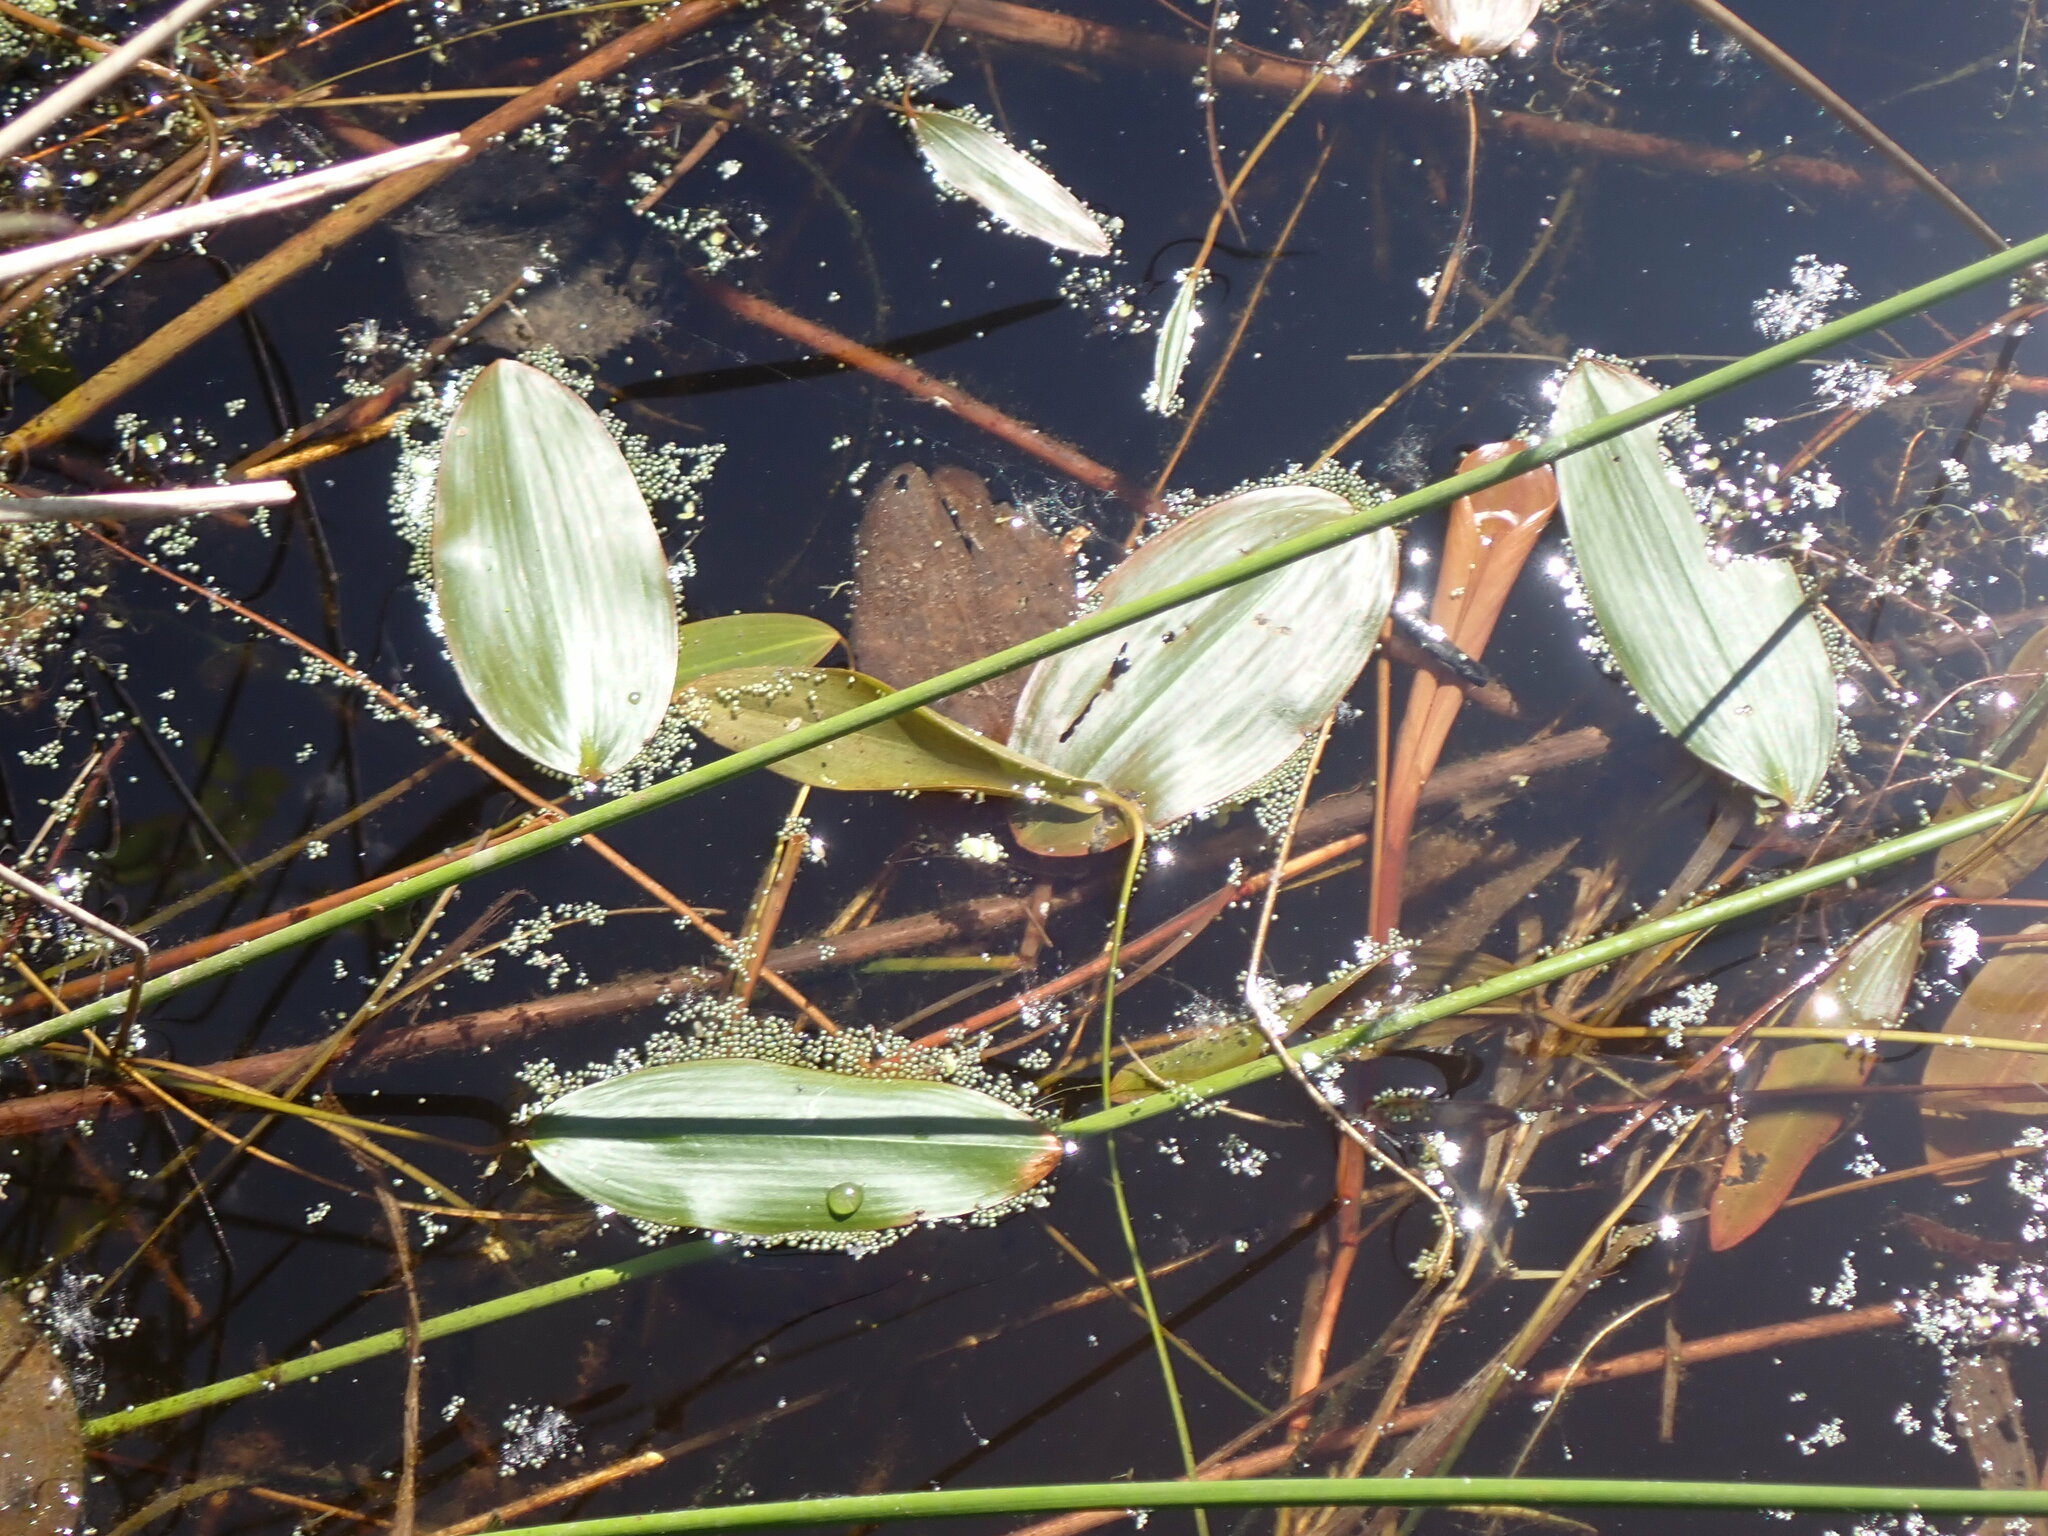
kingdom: Plantae
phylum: Tracheophyta
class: Liliopsida
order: Alismatales
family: Potamogetonaceae
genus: Potamogeton
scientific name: Potamogeton natans
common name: Broad-leaved pondweed
